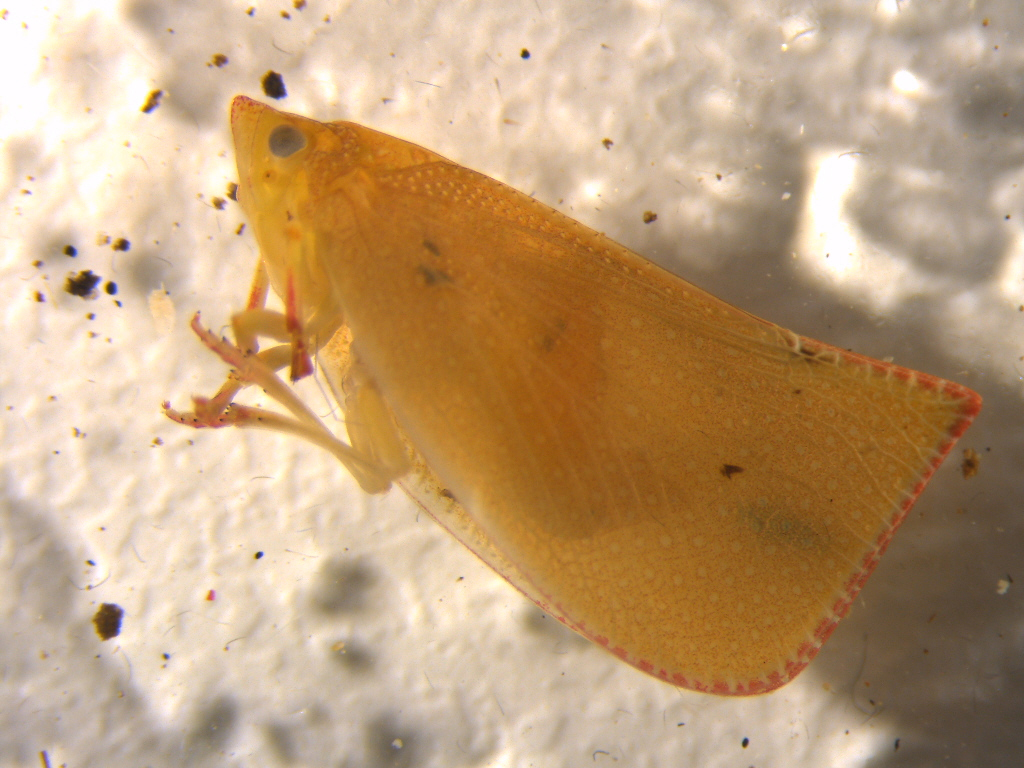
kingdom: Animalia
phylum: Arthropoda
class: Insecta
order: Hemiptera
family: Flatidae
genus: Siphanta
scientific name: Siphanta acuta
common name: Torpedo bug
